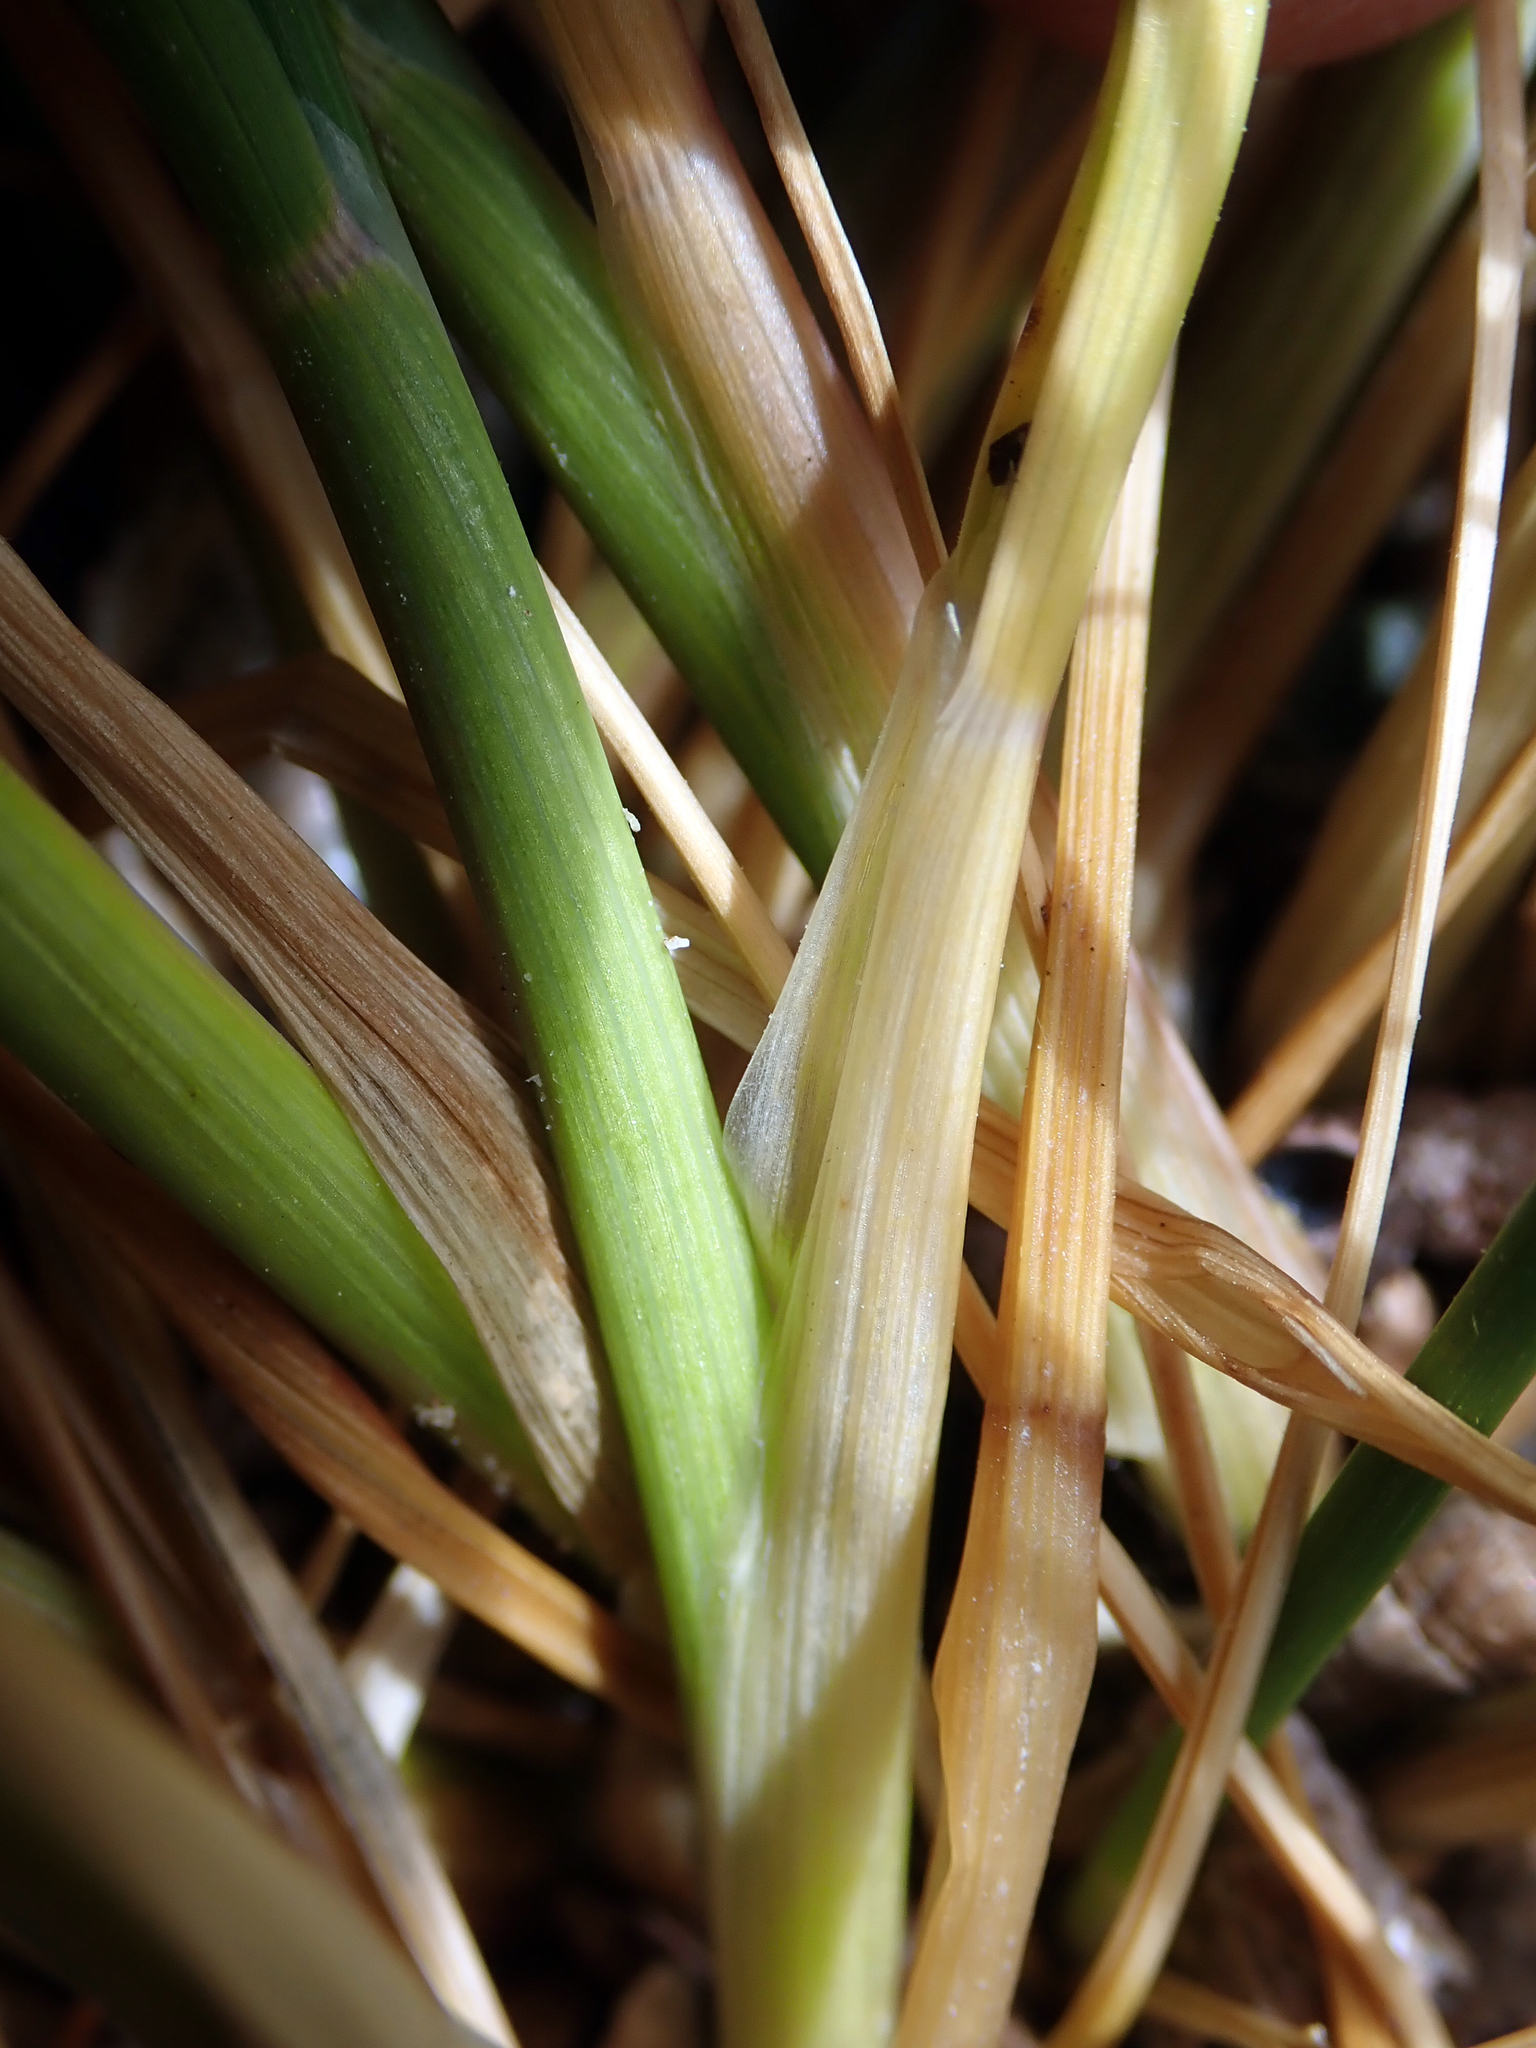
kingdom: Plantae
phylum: Tracheophyta
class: Liliopsida
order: Poales
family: Poaceae
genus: Puccinellia
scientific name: Puccinellia walkeri
